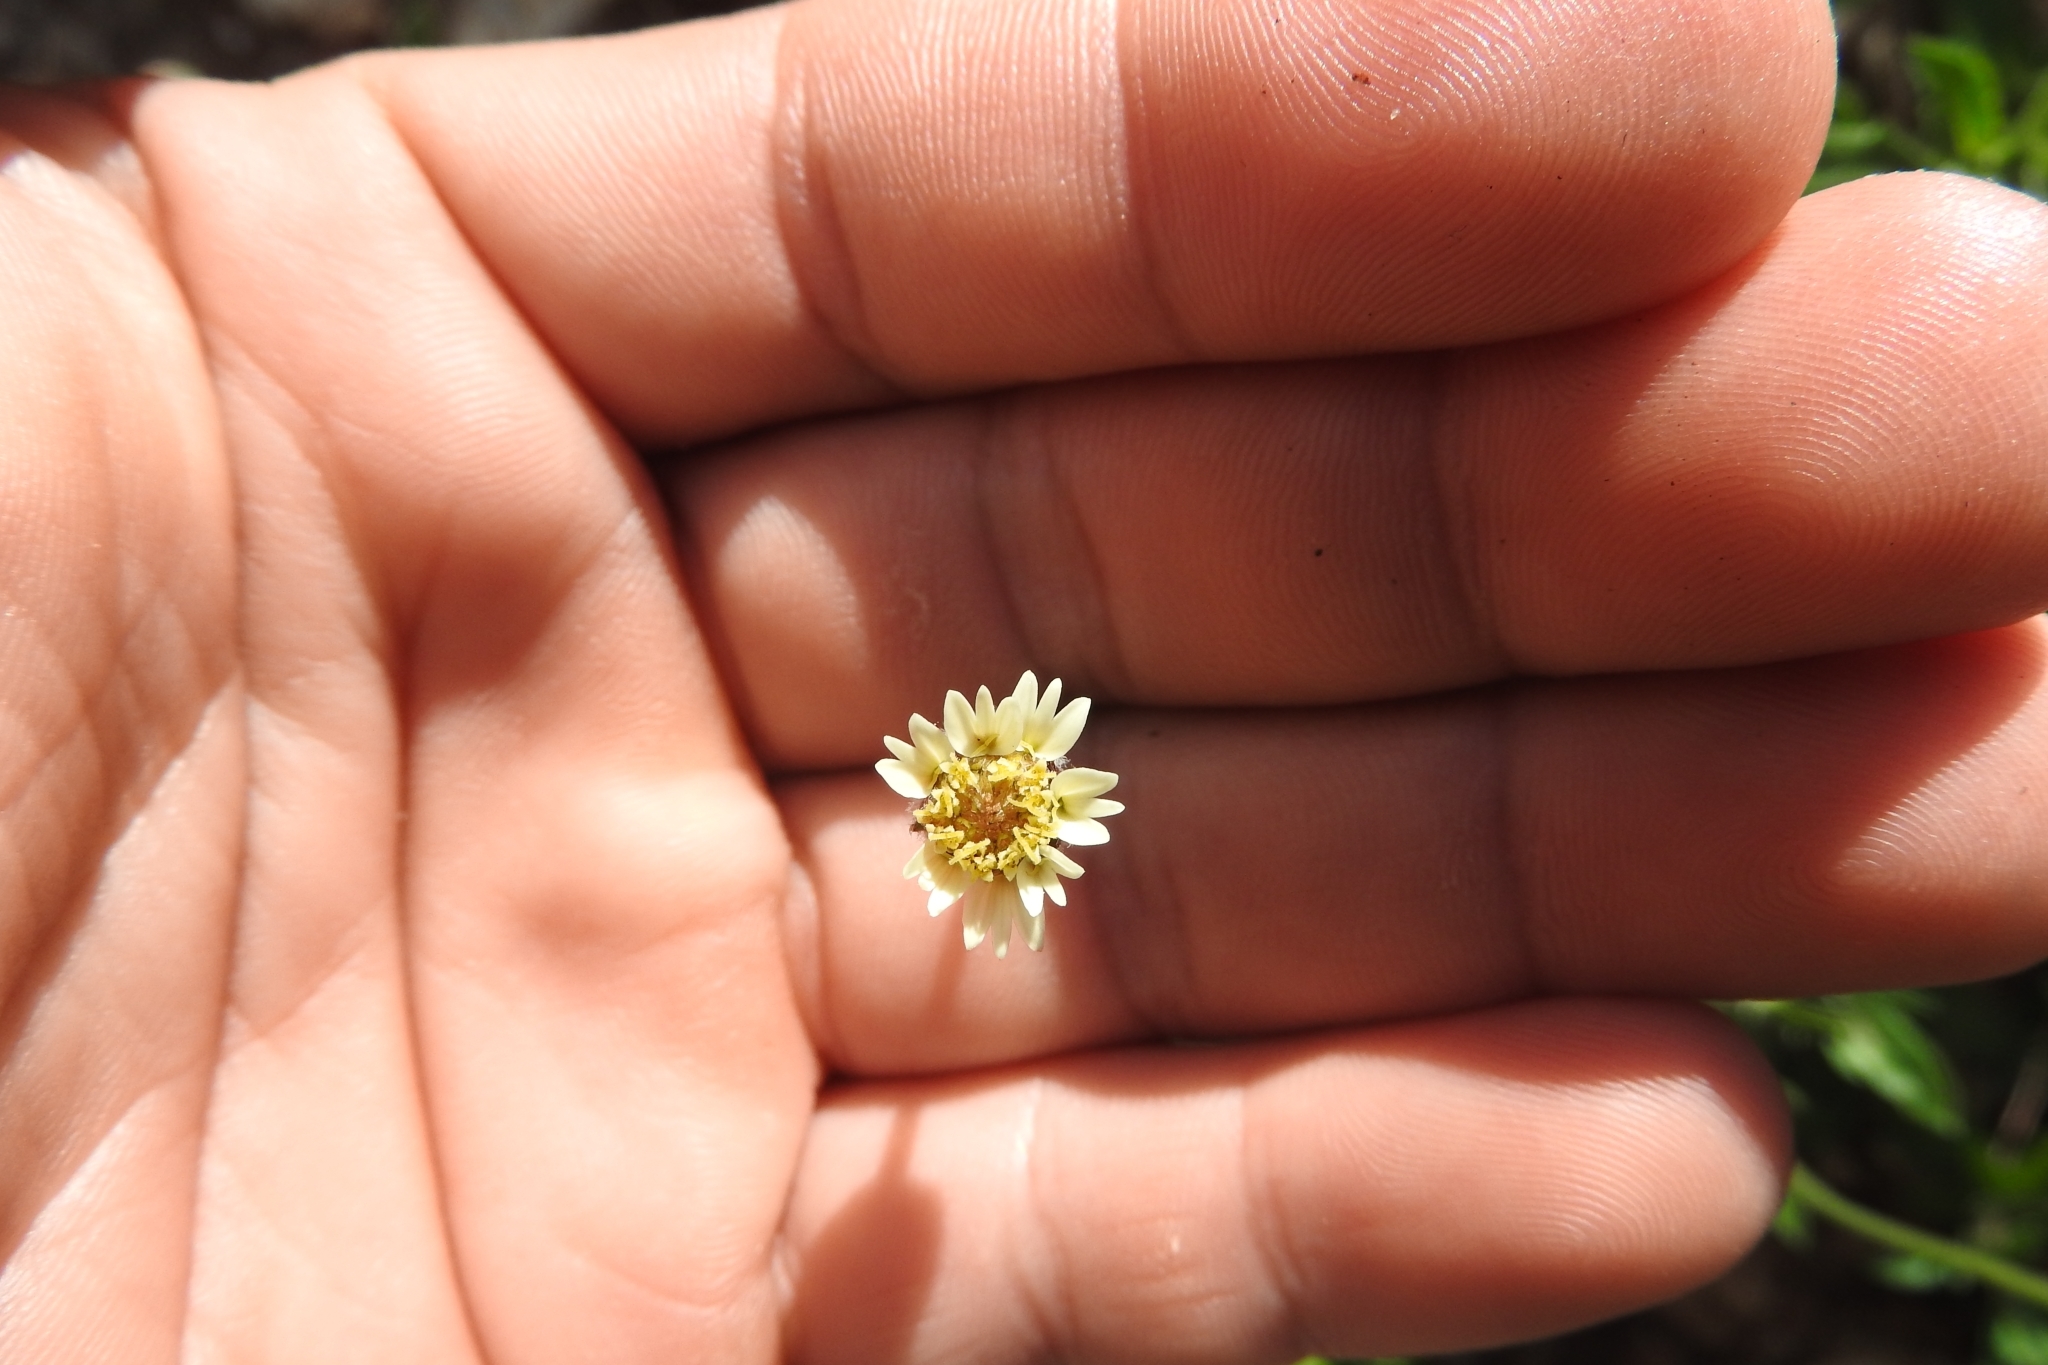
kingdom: Plantae
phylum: Tracheophyta
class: Magnoliopsida
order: Asterales
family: Asteraceae
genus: Tridax
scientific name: Tridax procumbens
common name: Coatbuttons
